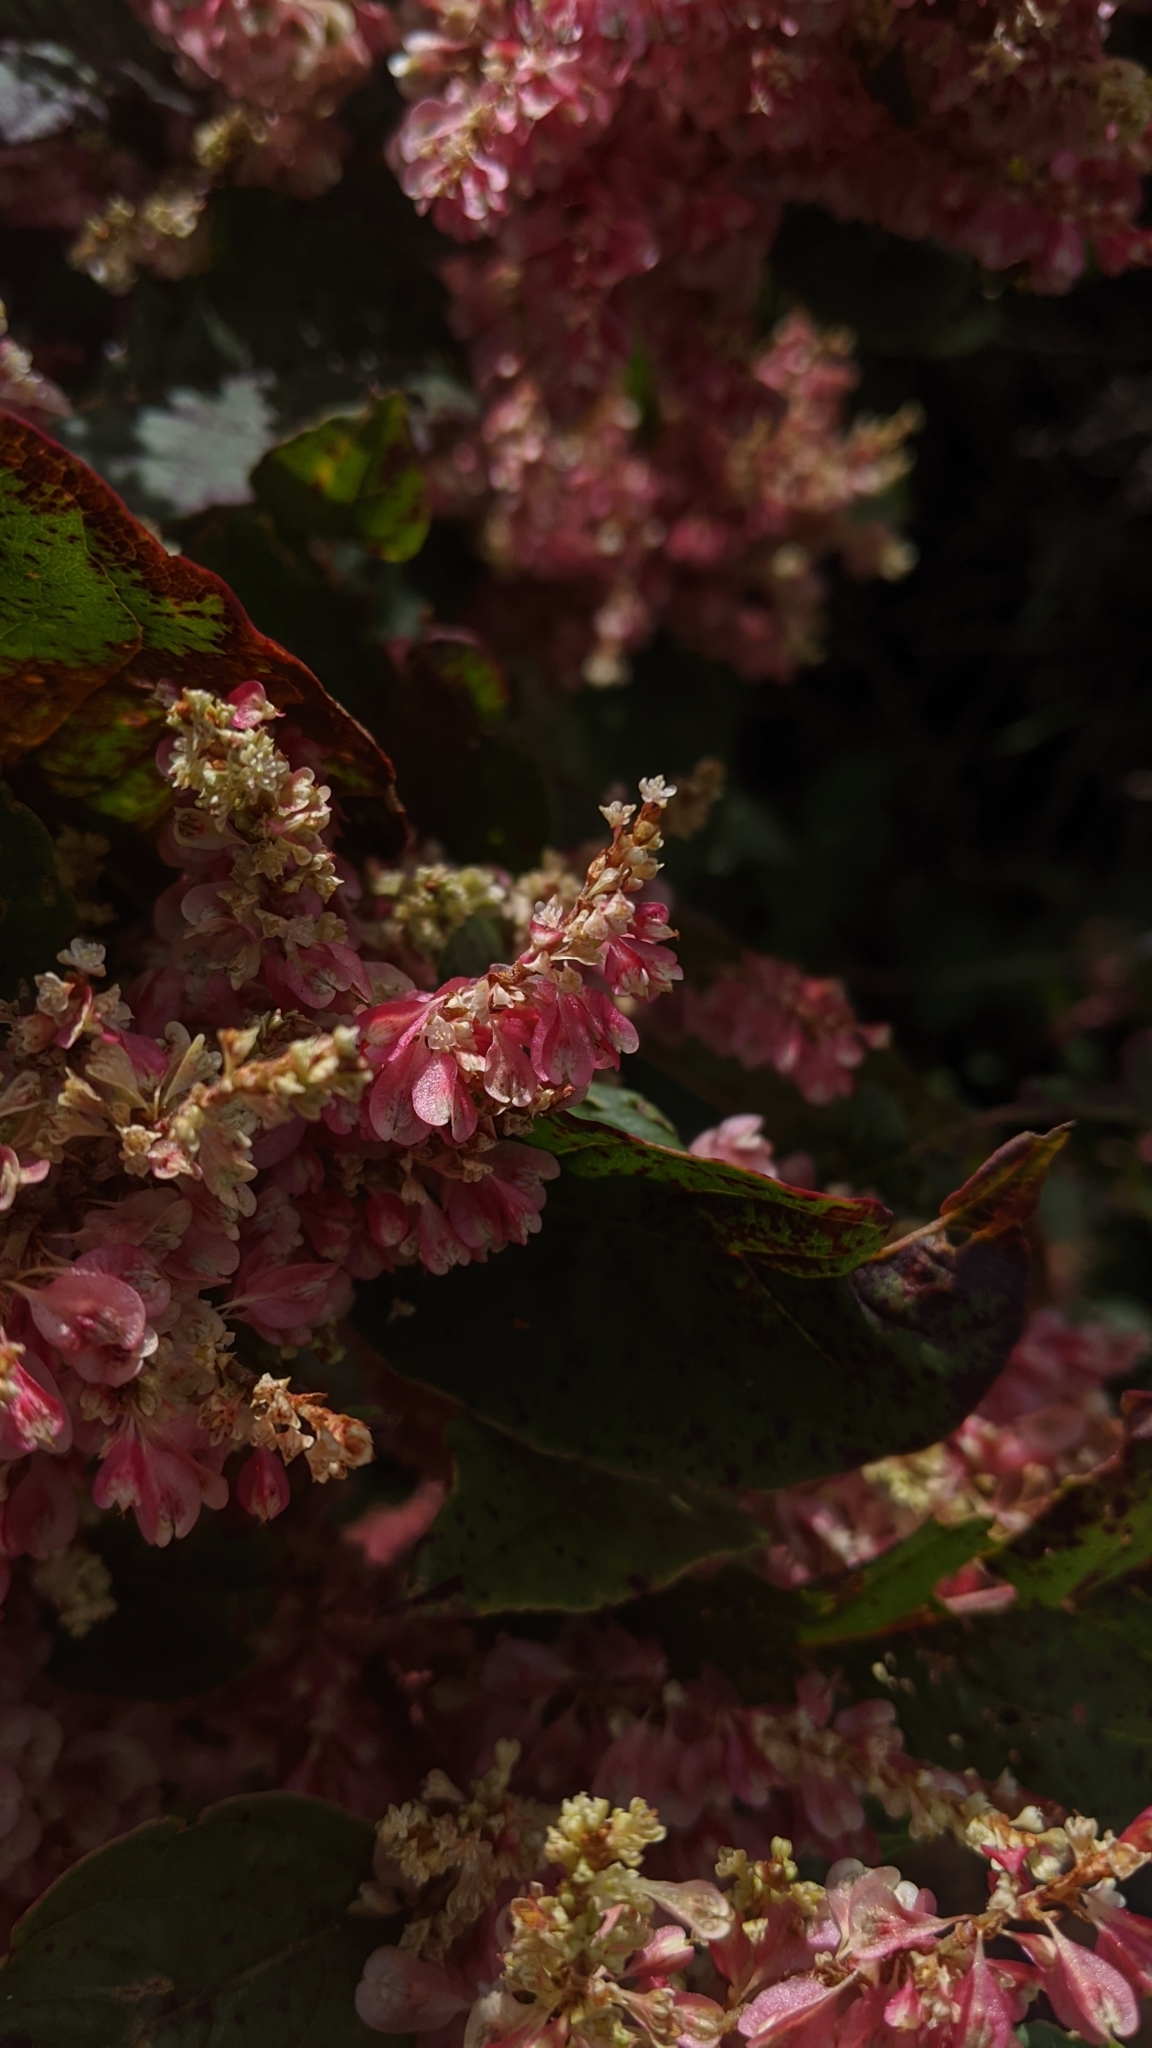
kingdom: Plantae
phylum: Tracheophyta
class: Magnoliopsida
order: Caryophyllales
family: Polygonaceae
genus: Reynoutria
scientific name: Reynoutria japonica
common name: Japanese knotweed
